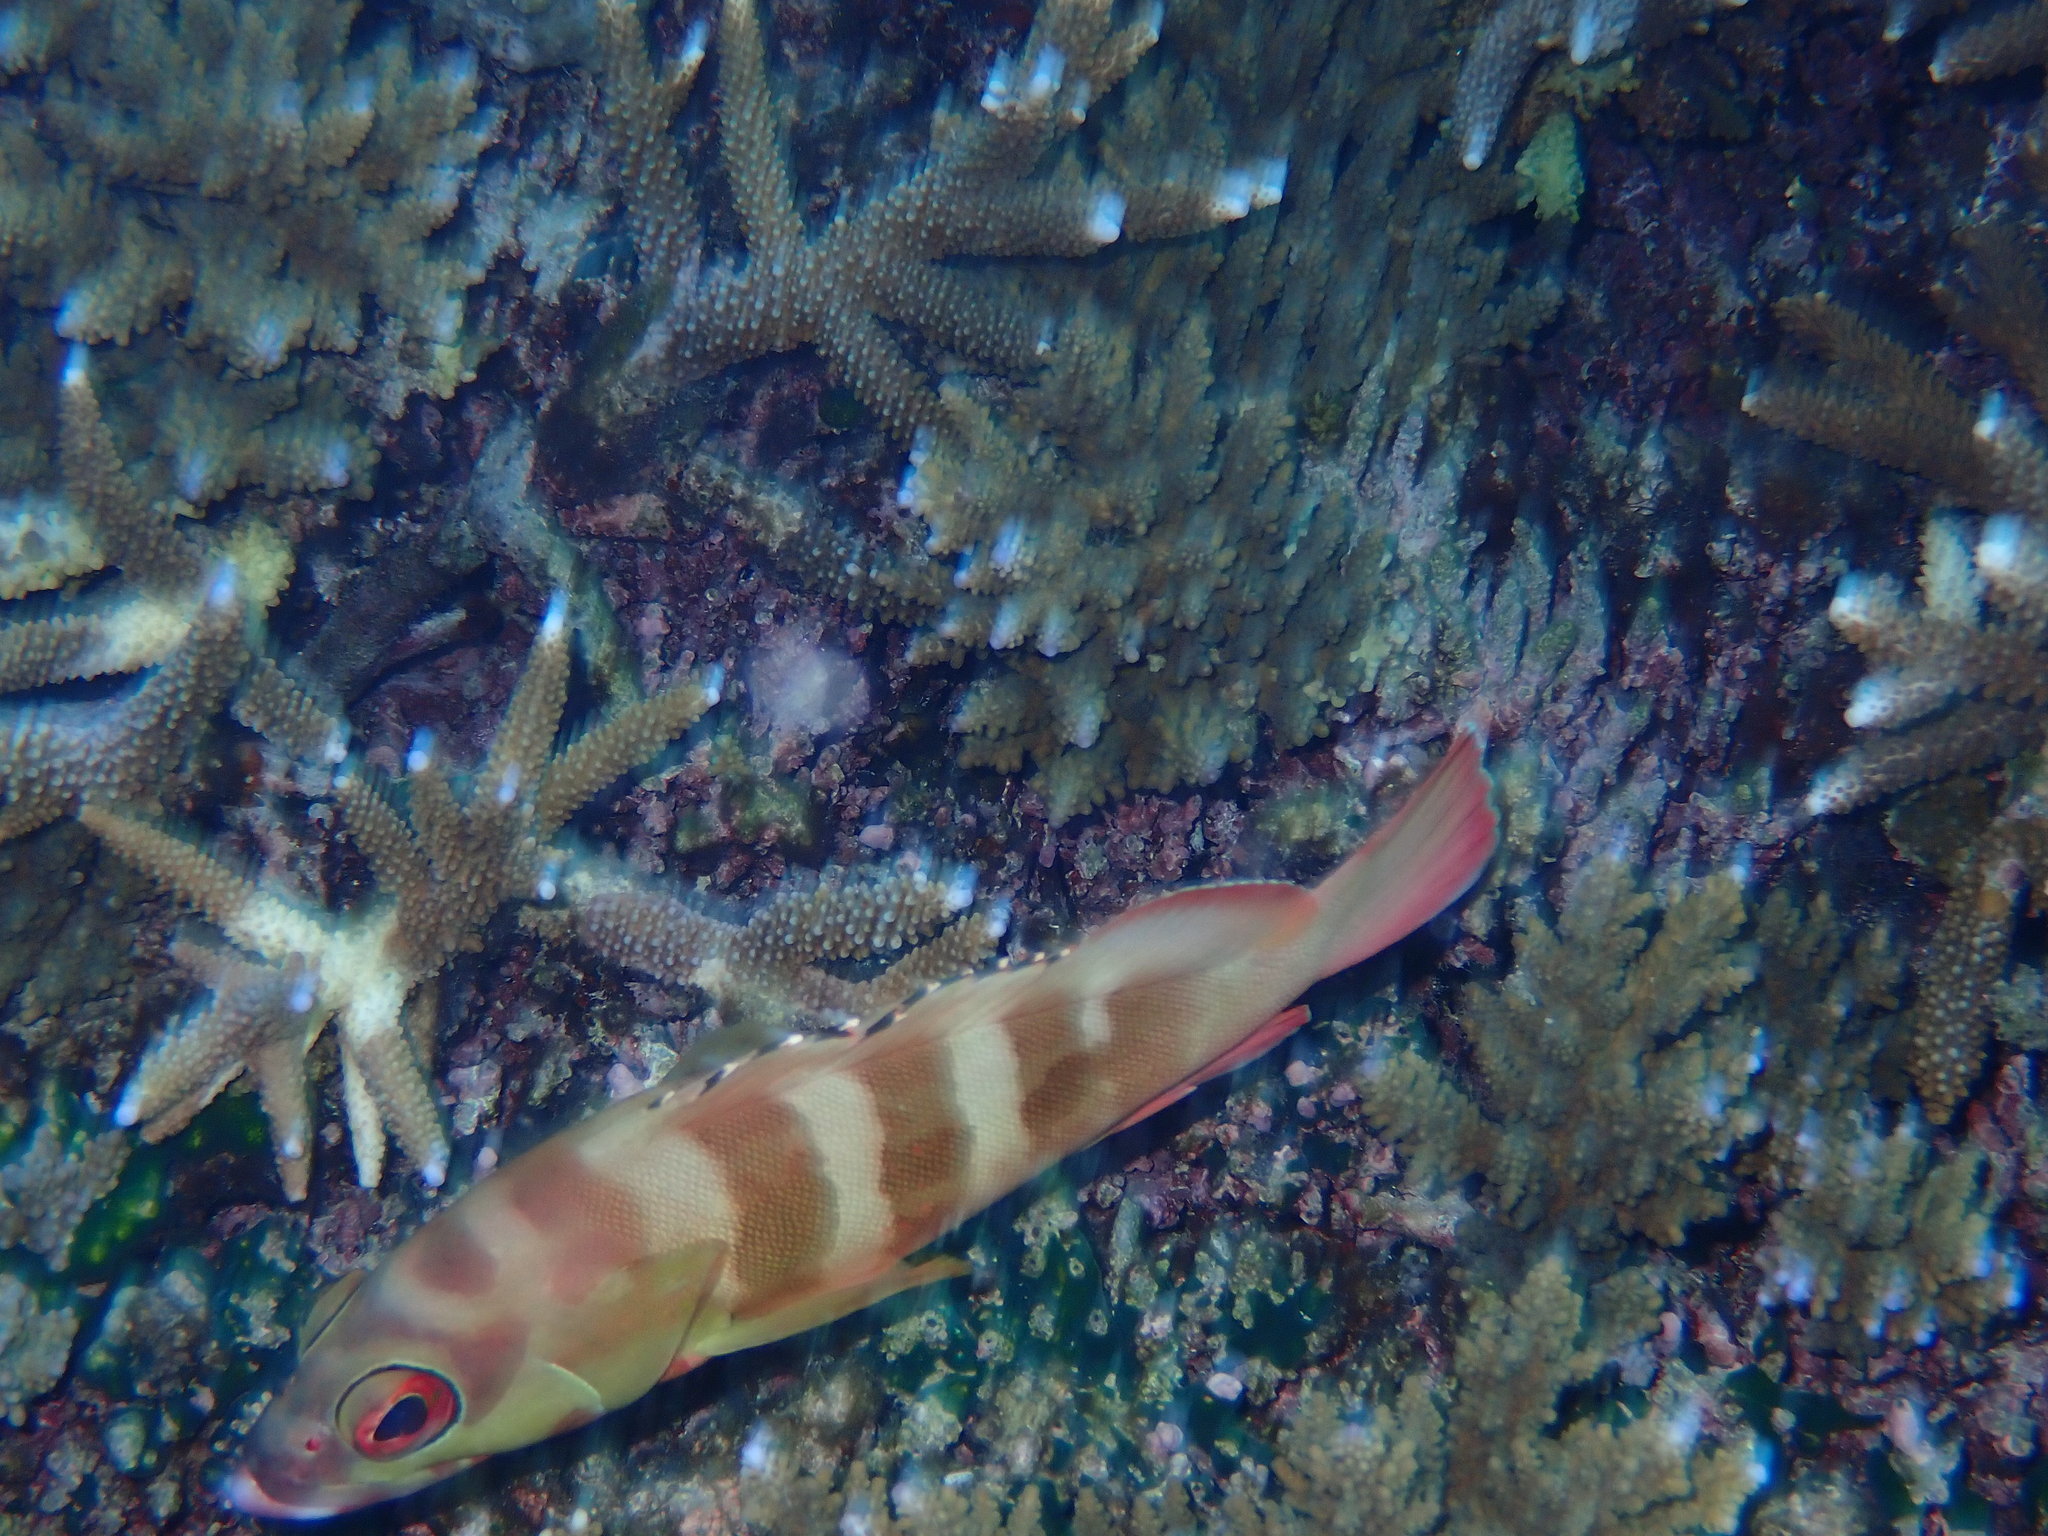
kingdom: Animalia
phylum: Chordata
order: Perciformes
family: Serranidae
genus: Epinephelus
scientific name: Epinephelus fasciatus
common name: Blacktip grouper
